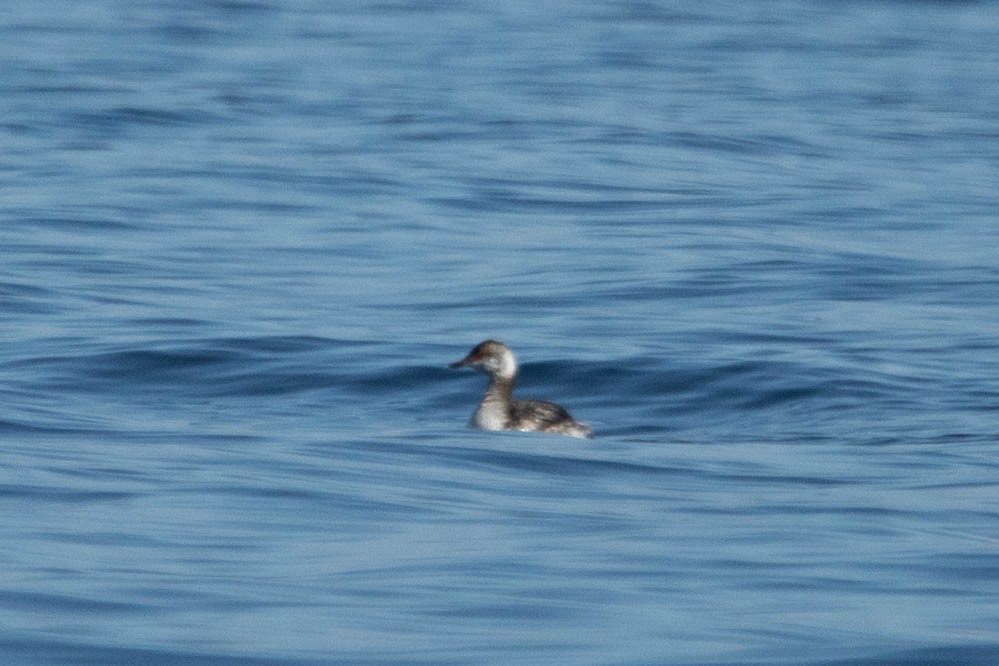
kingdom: Animalia
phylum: Chordata
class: Aves
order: Podicipediformes
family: Podicipedidae
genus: Podiceps
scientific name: Podiceps auritus
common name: Horned grebe
